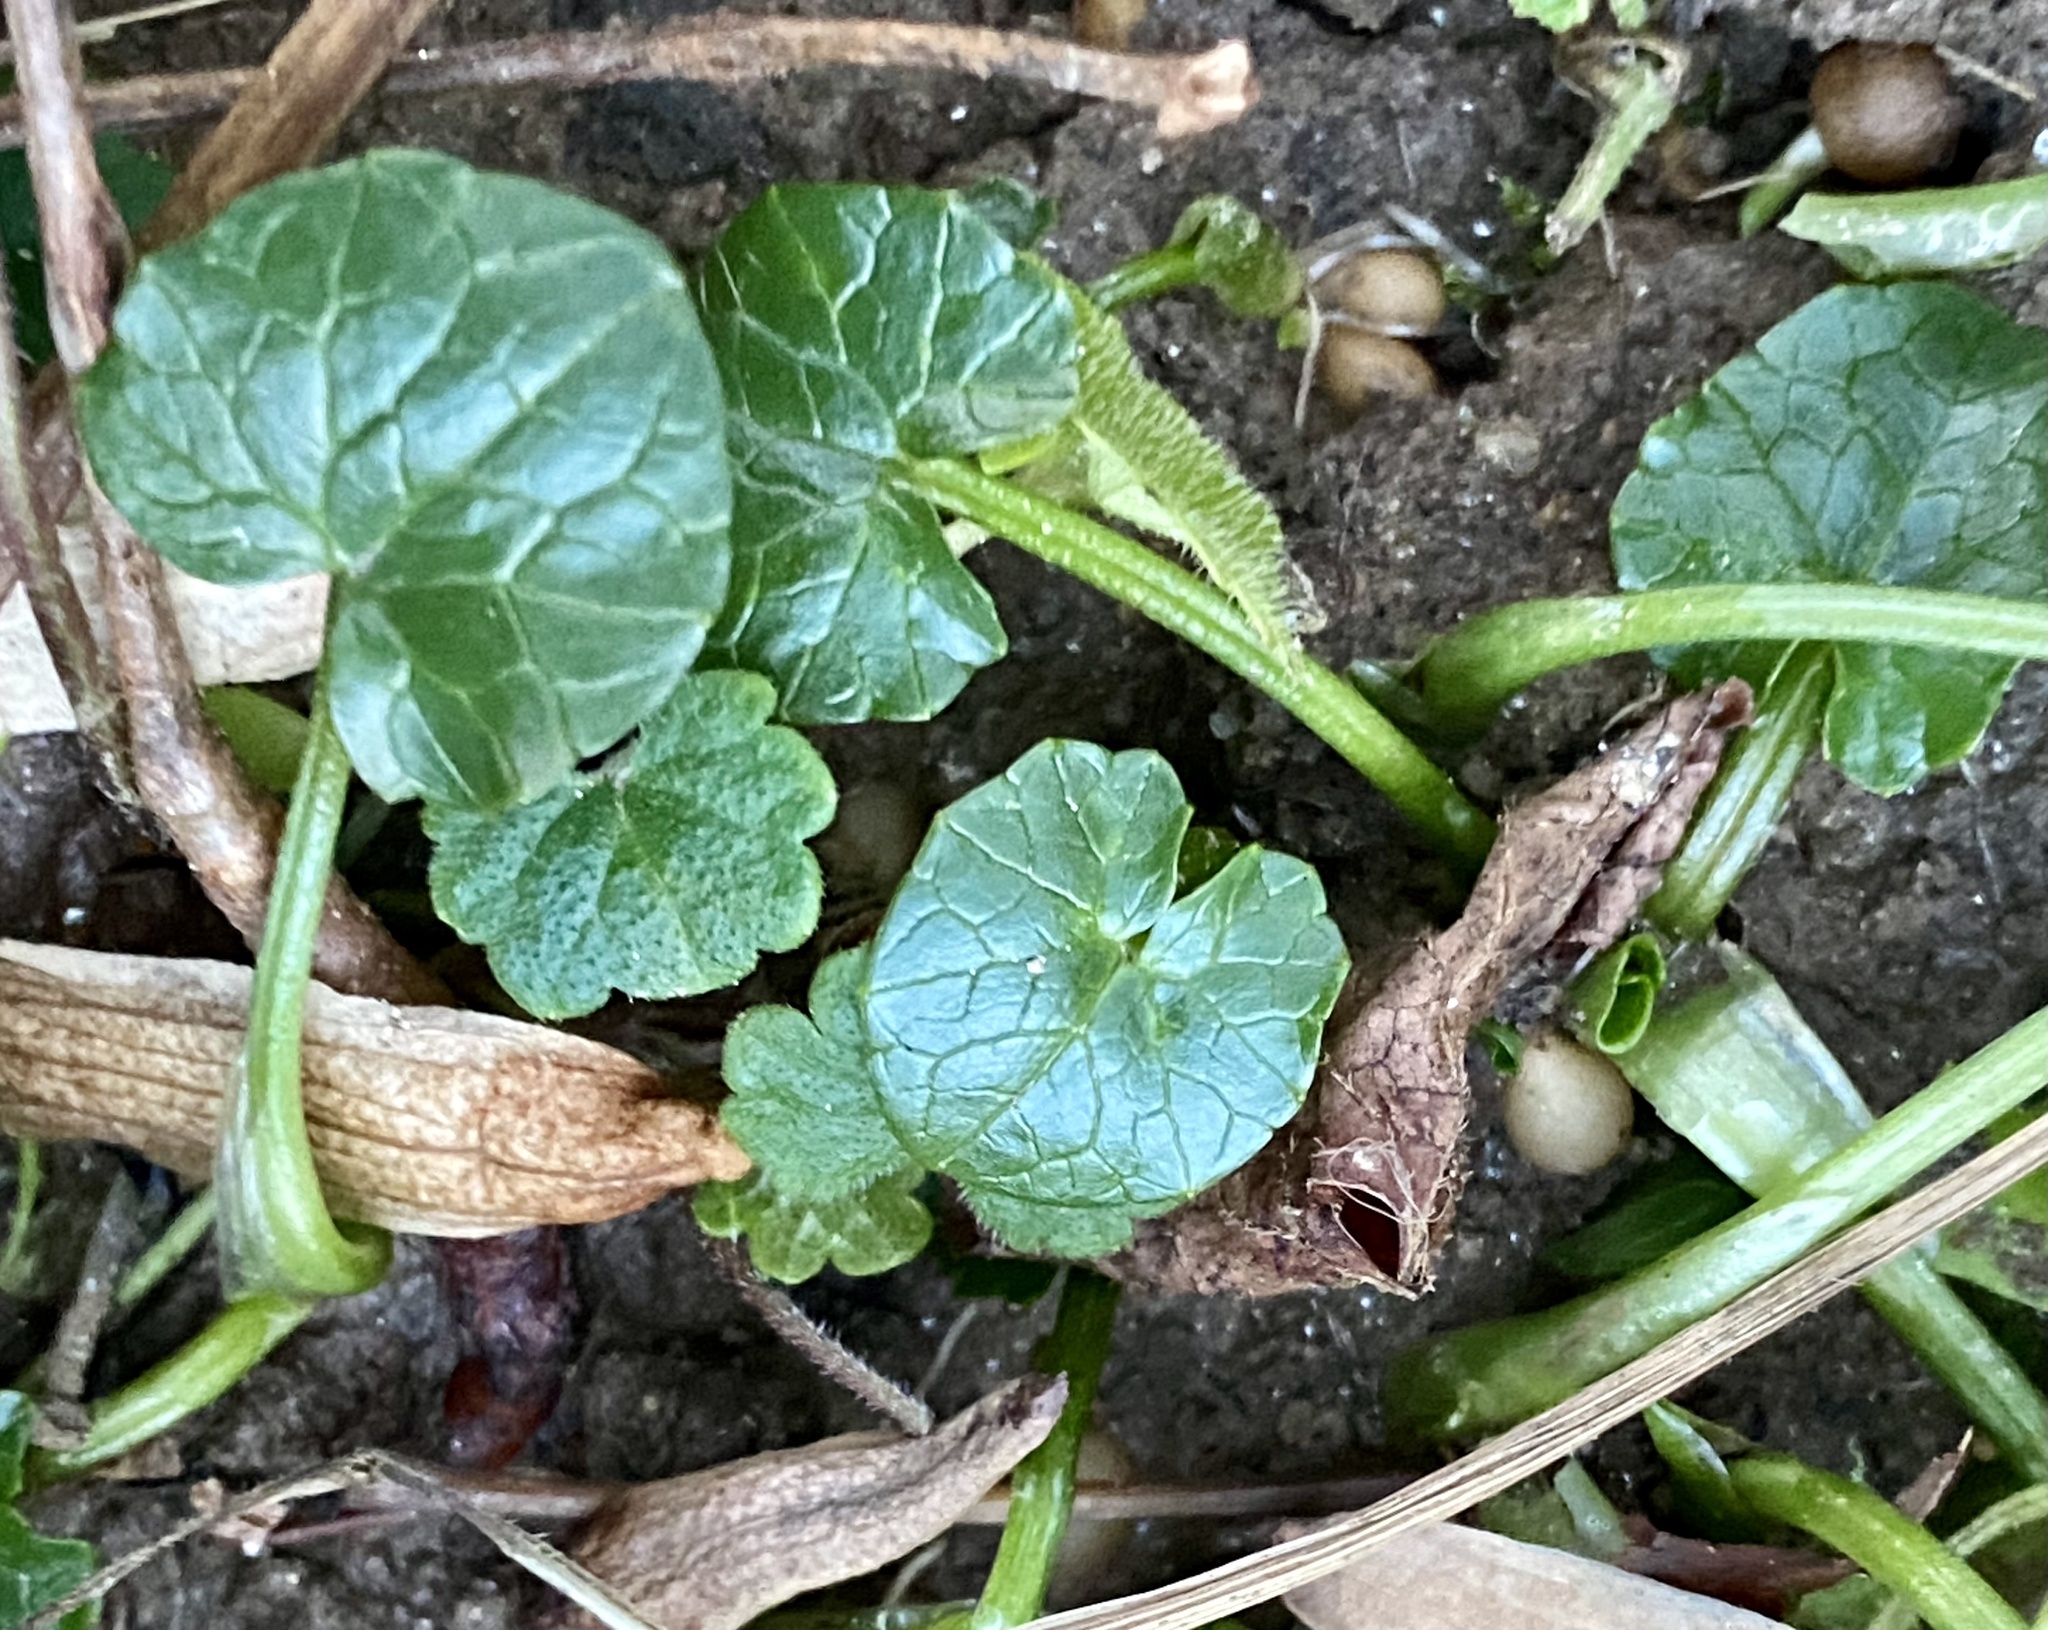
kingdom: Plantae
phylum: Tracheophyta
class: Magnoliopsida
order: Ranunculales
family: Ranunculaceae
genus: Ficaria
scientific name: Ficaria verna
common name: Lesser celandine
